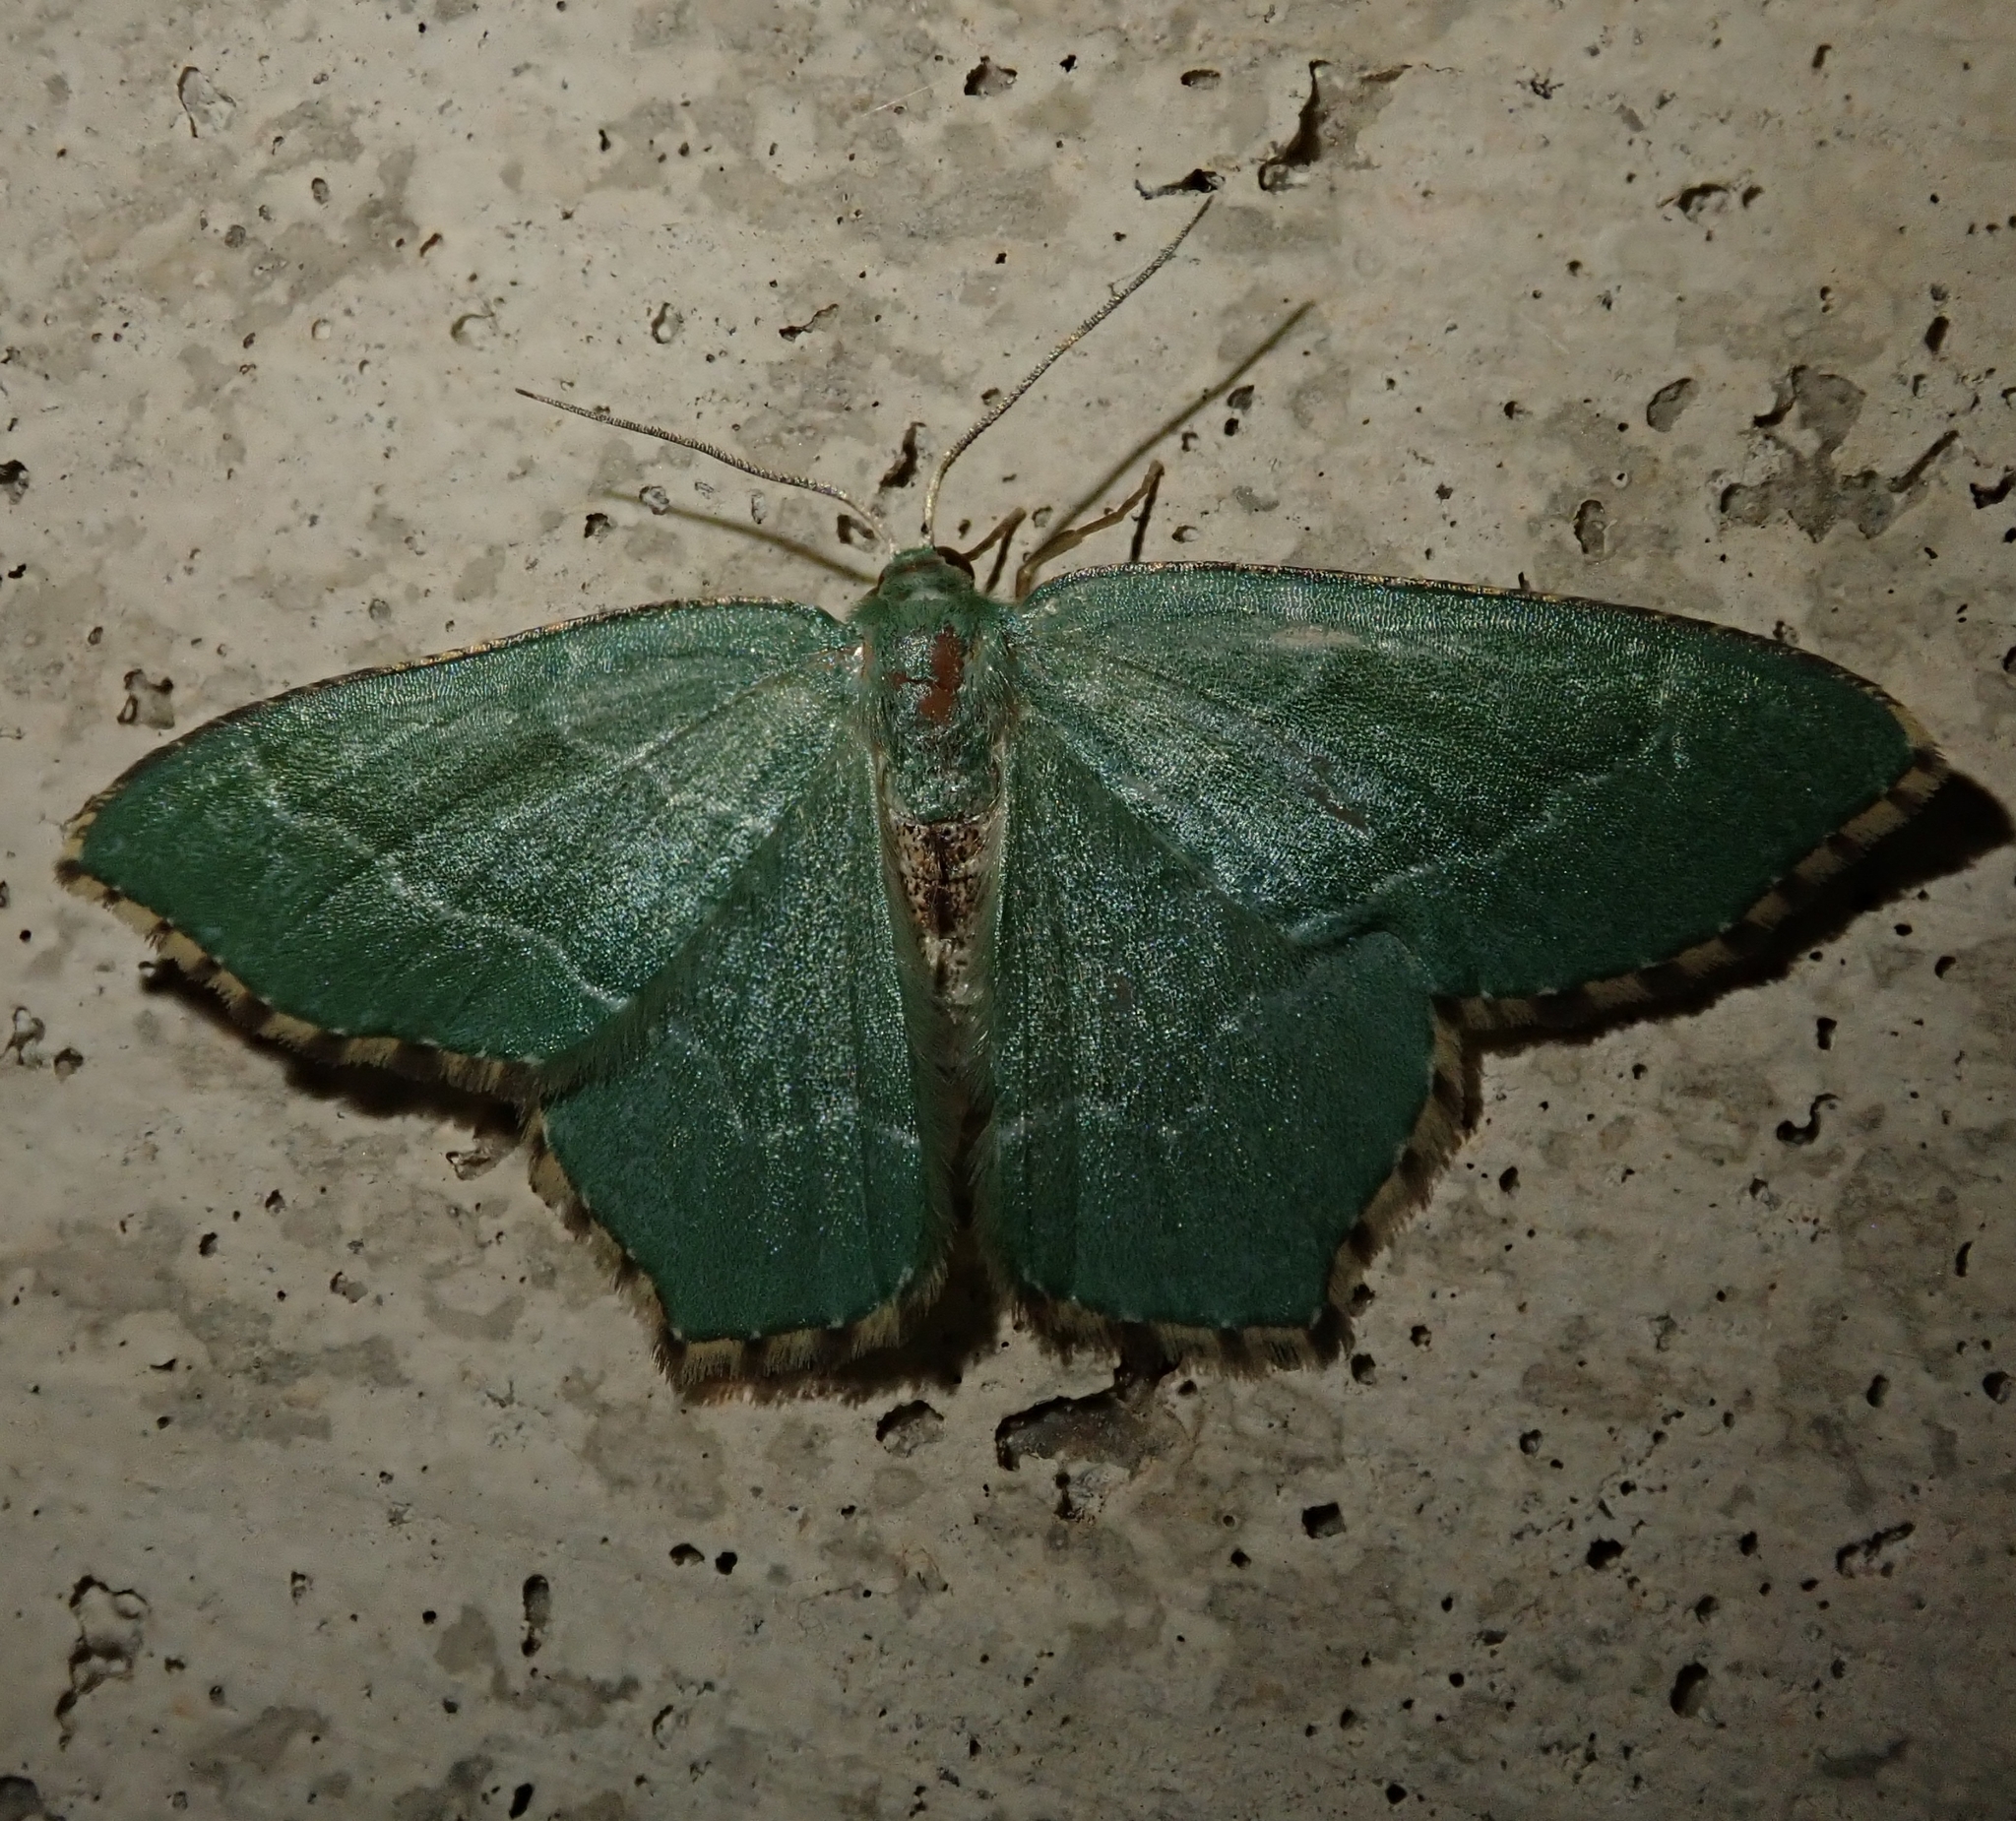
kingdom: Animalia
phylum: Arthropoda
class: Insecta
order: Lepidoptera
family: Geometridae
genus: Hemithea
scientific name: Hemithea aestivaria
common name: Common emerald
